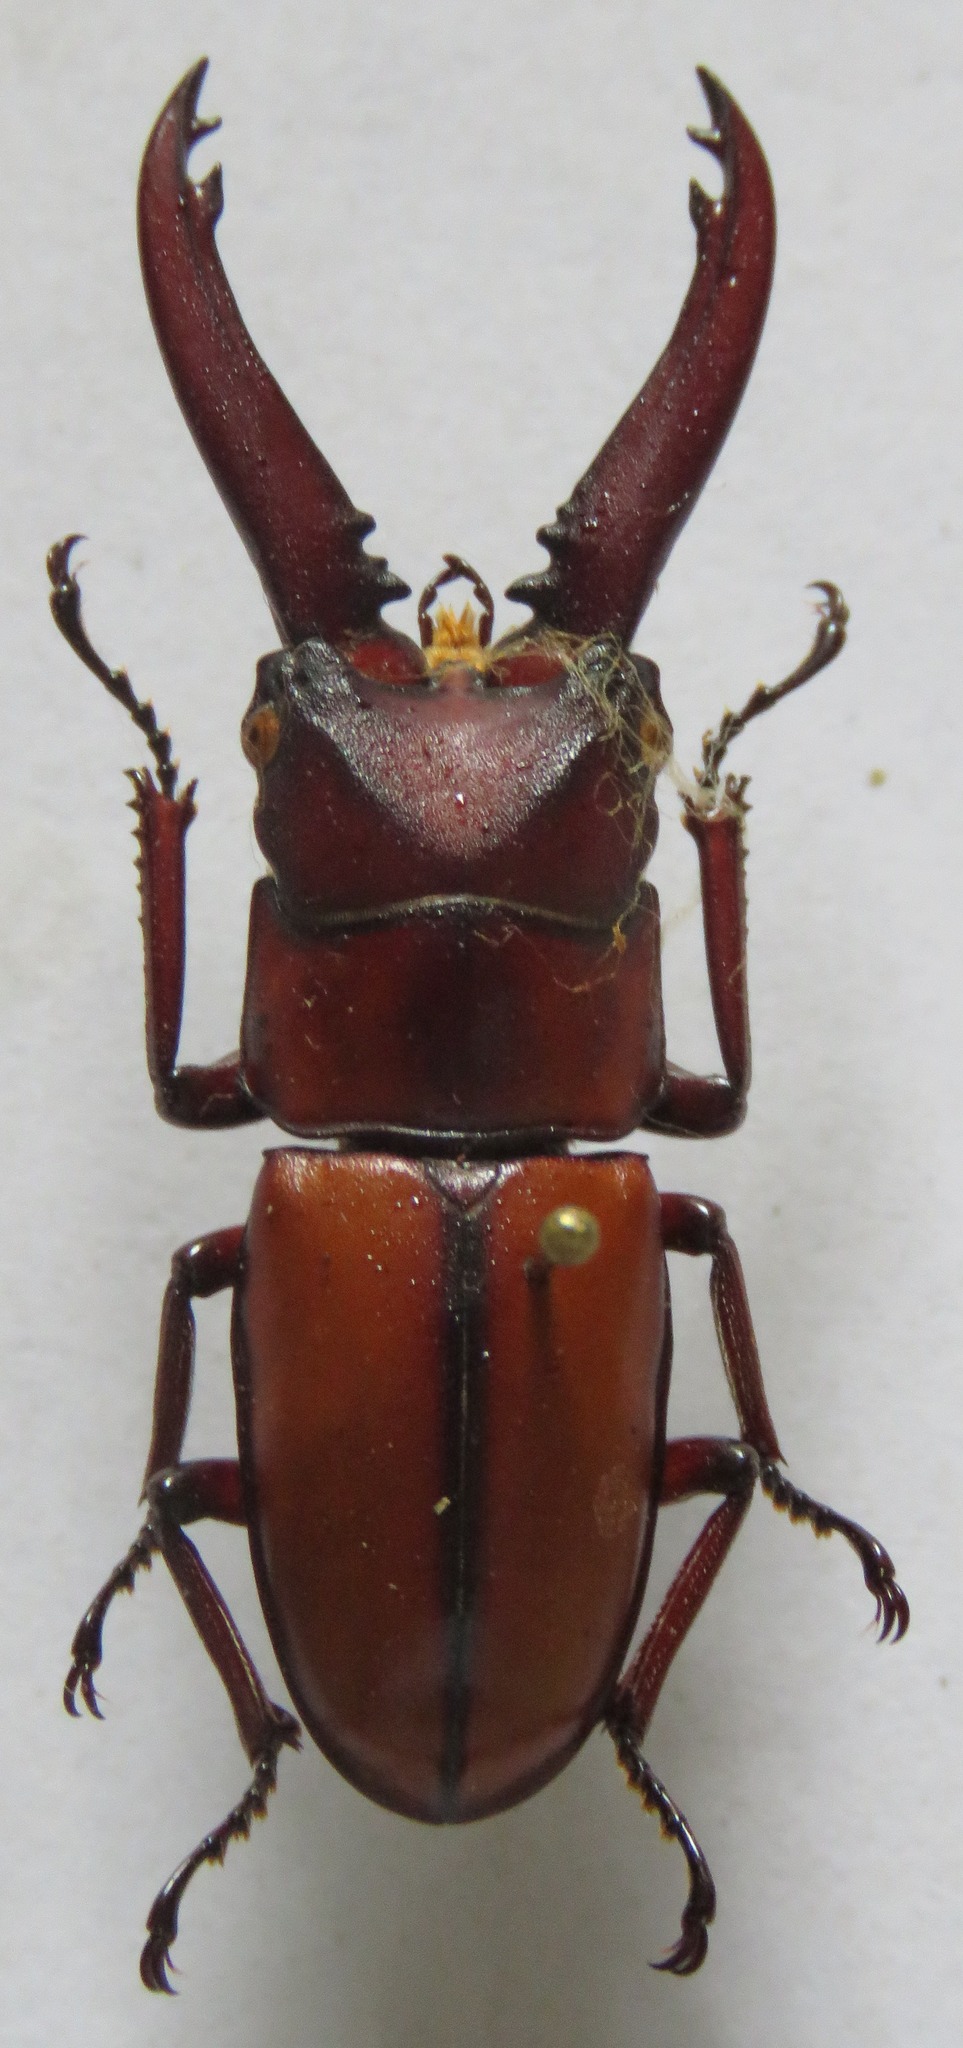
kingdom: Animalia
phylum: Arthropoda
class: Insecta
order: Coleoptera
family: Lucanidae
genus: Prosopocoilus
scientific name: Prosopocoilus mohnikei
